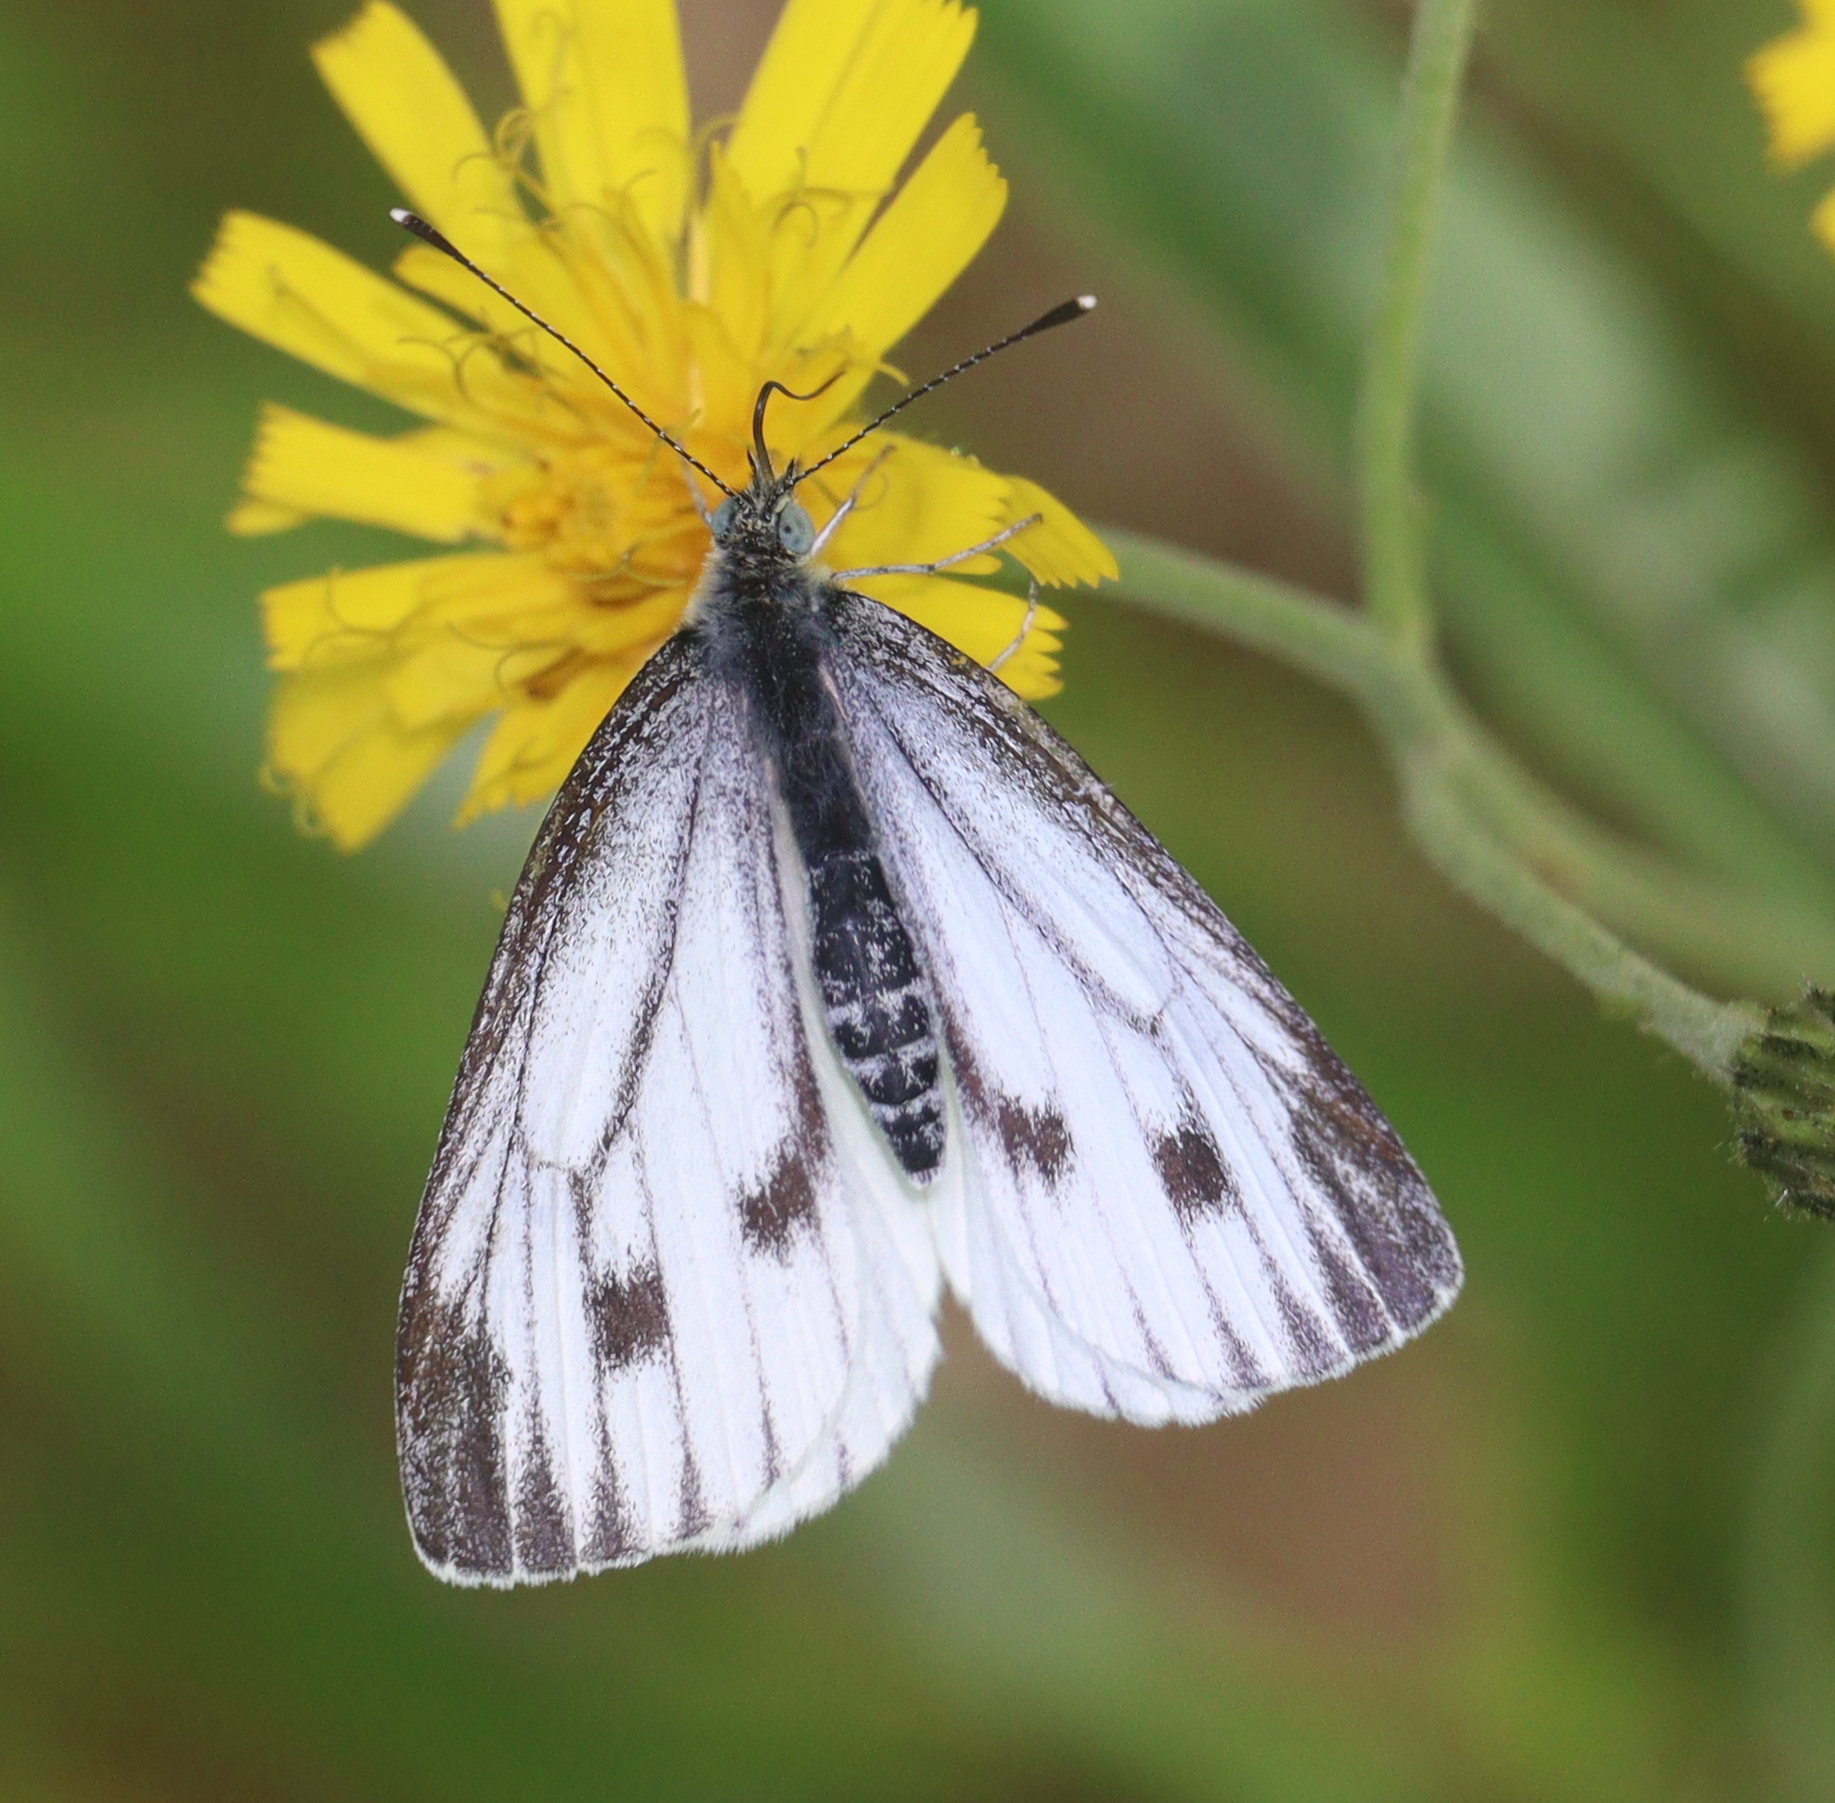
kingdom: Animalia
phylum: Arthropoda
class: Insecta
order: Lepidoptera
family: Pieridae
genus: Pieris
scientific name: Pieris napi
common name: Green-veined white
